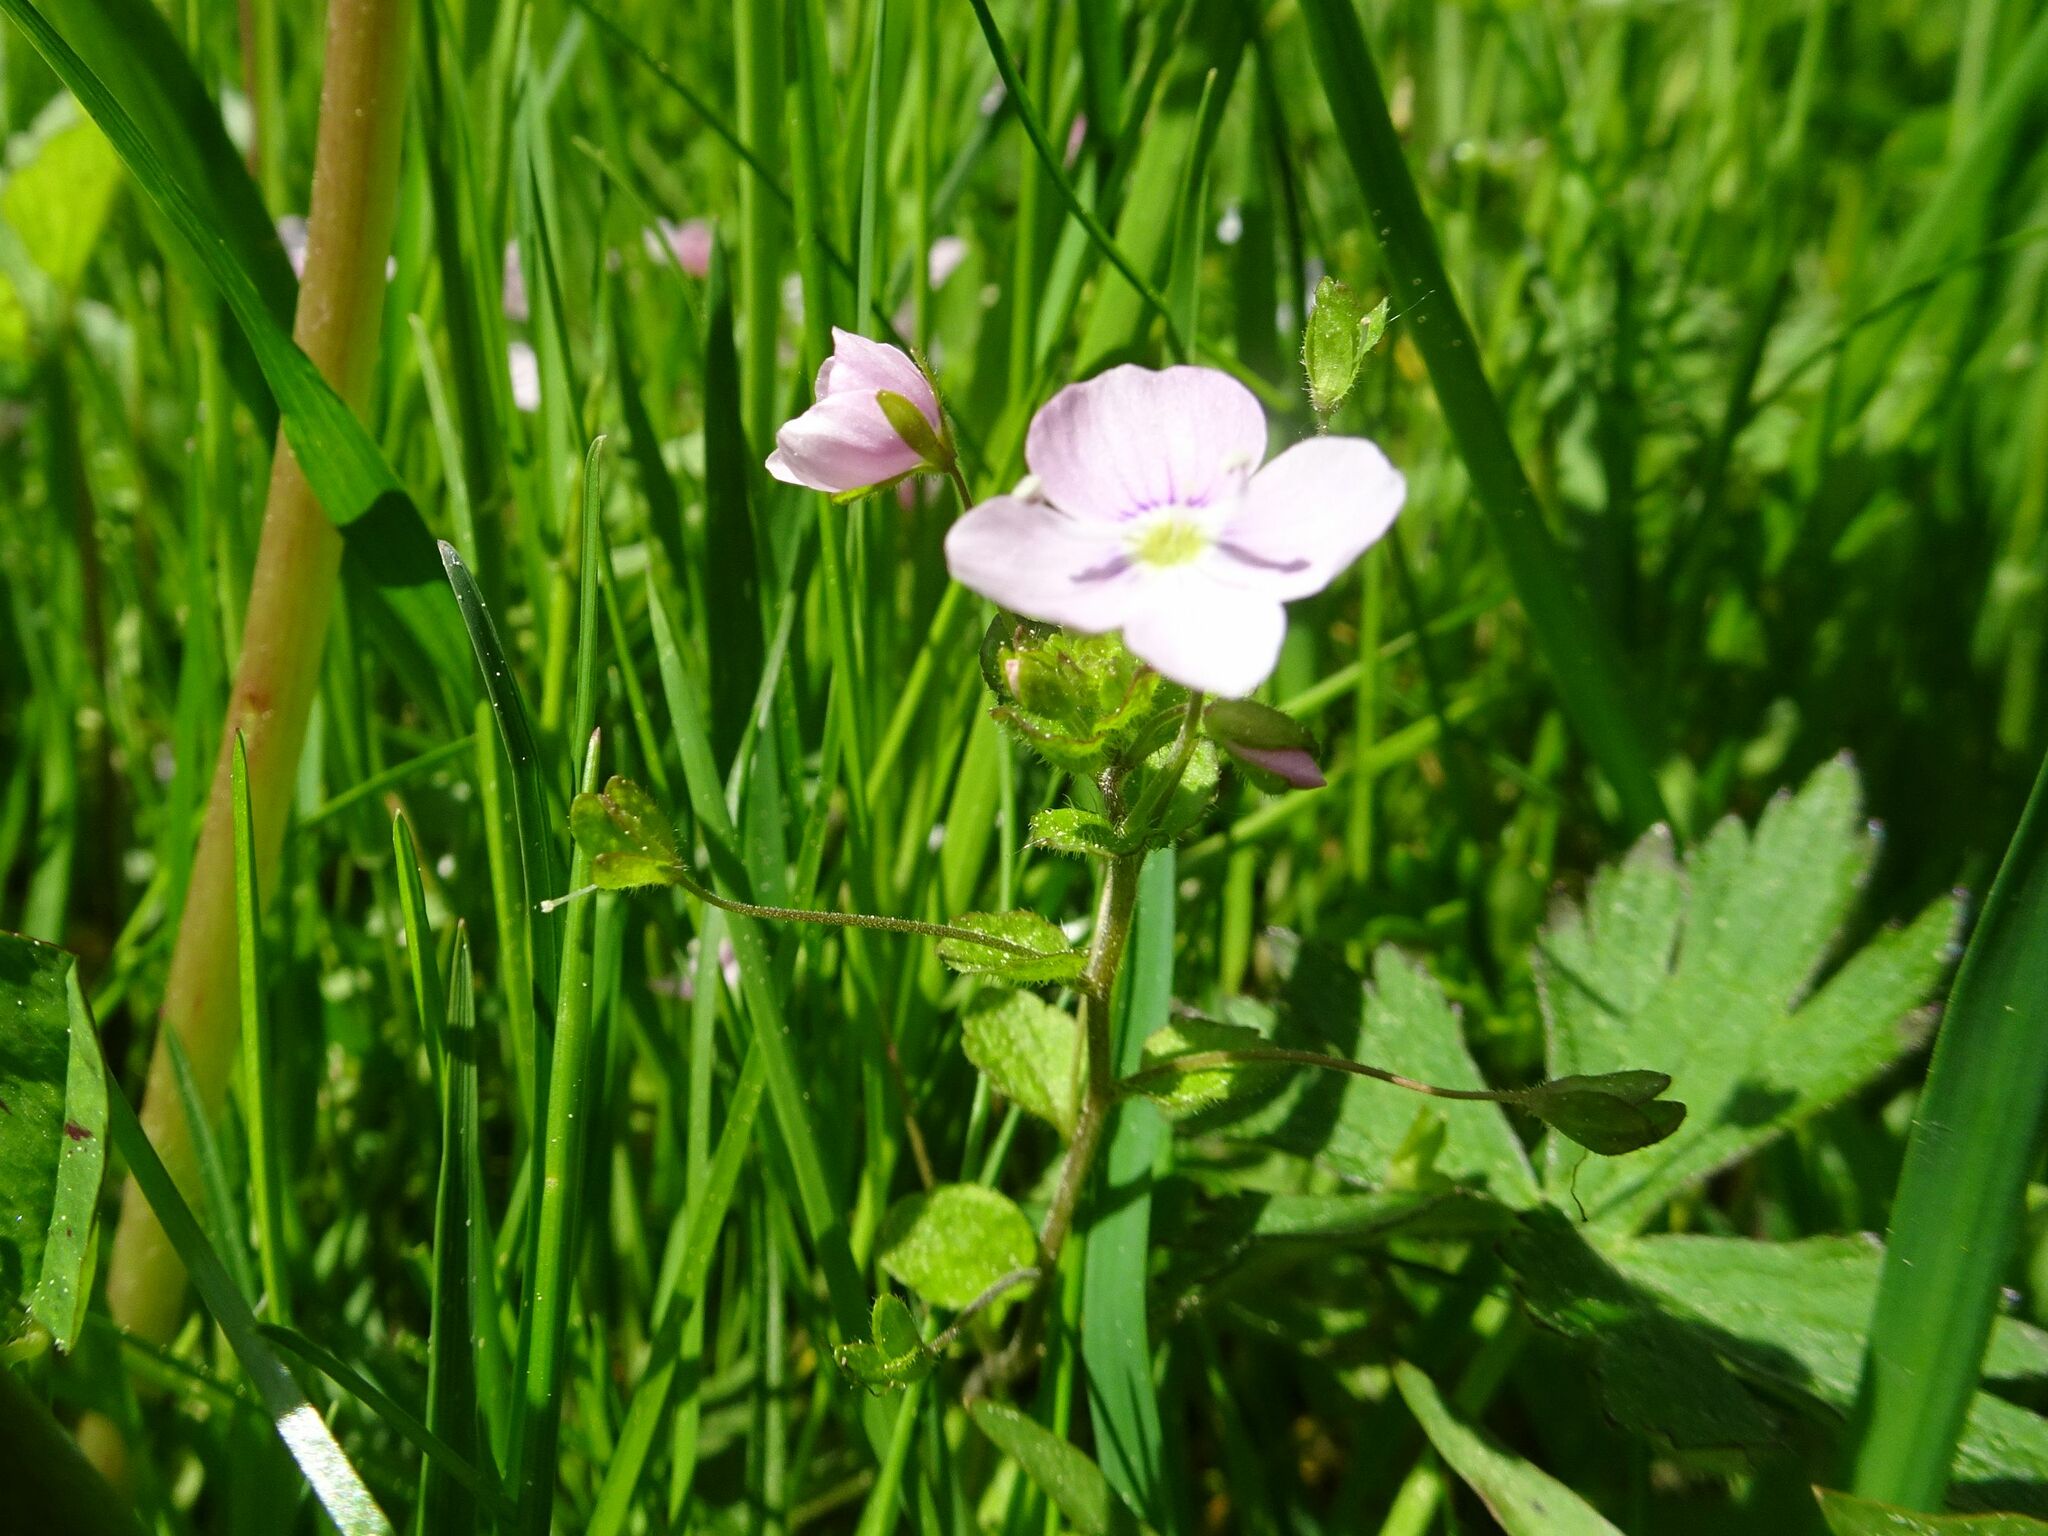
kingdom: Plantae
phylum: Tracheophyta
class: Magnoliopsida
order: Lamiales
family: Plantaginaceae
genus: Veronica
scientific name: Veronica filiformis
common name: Slender speedwell
